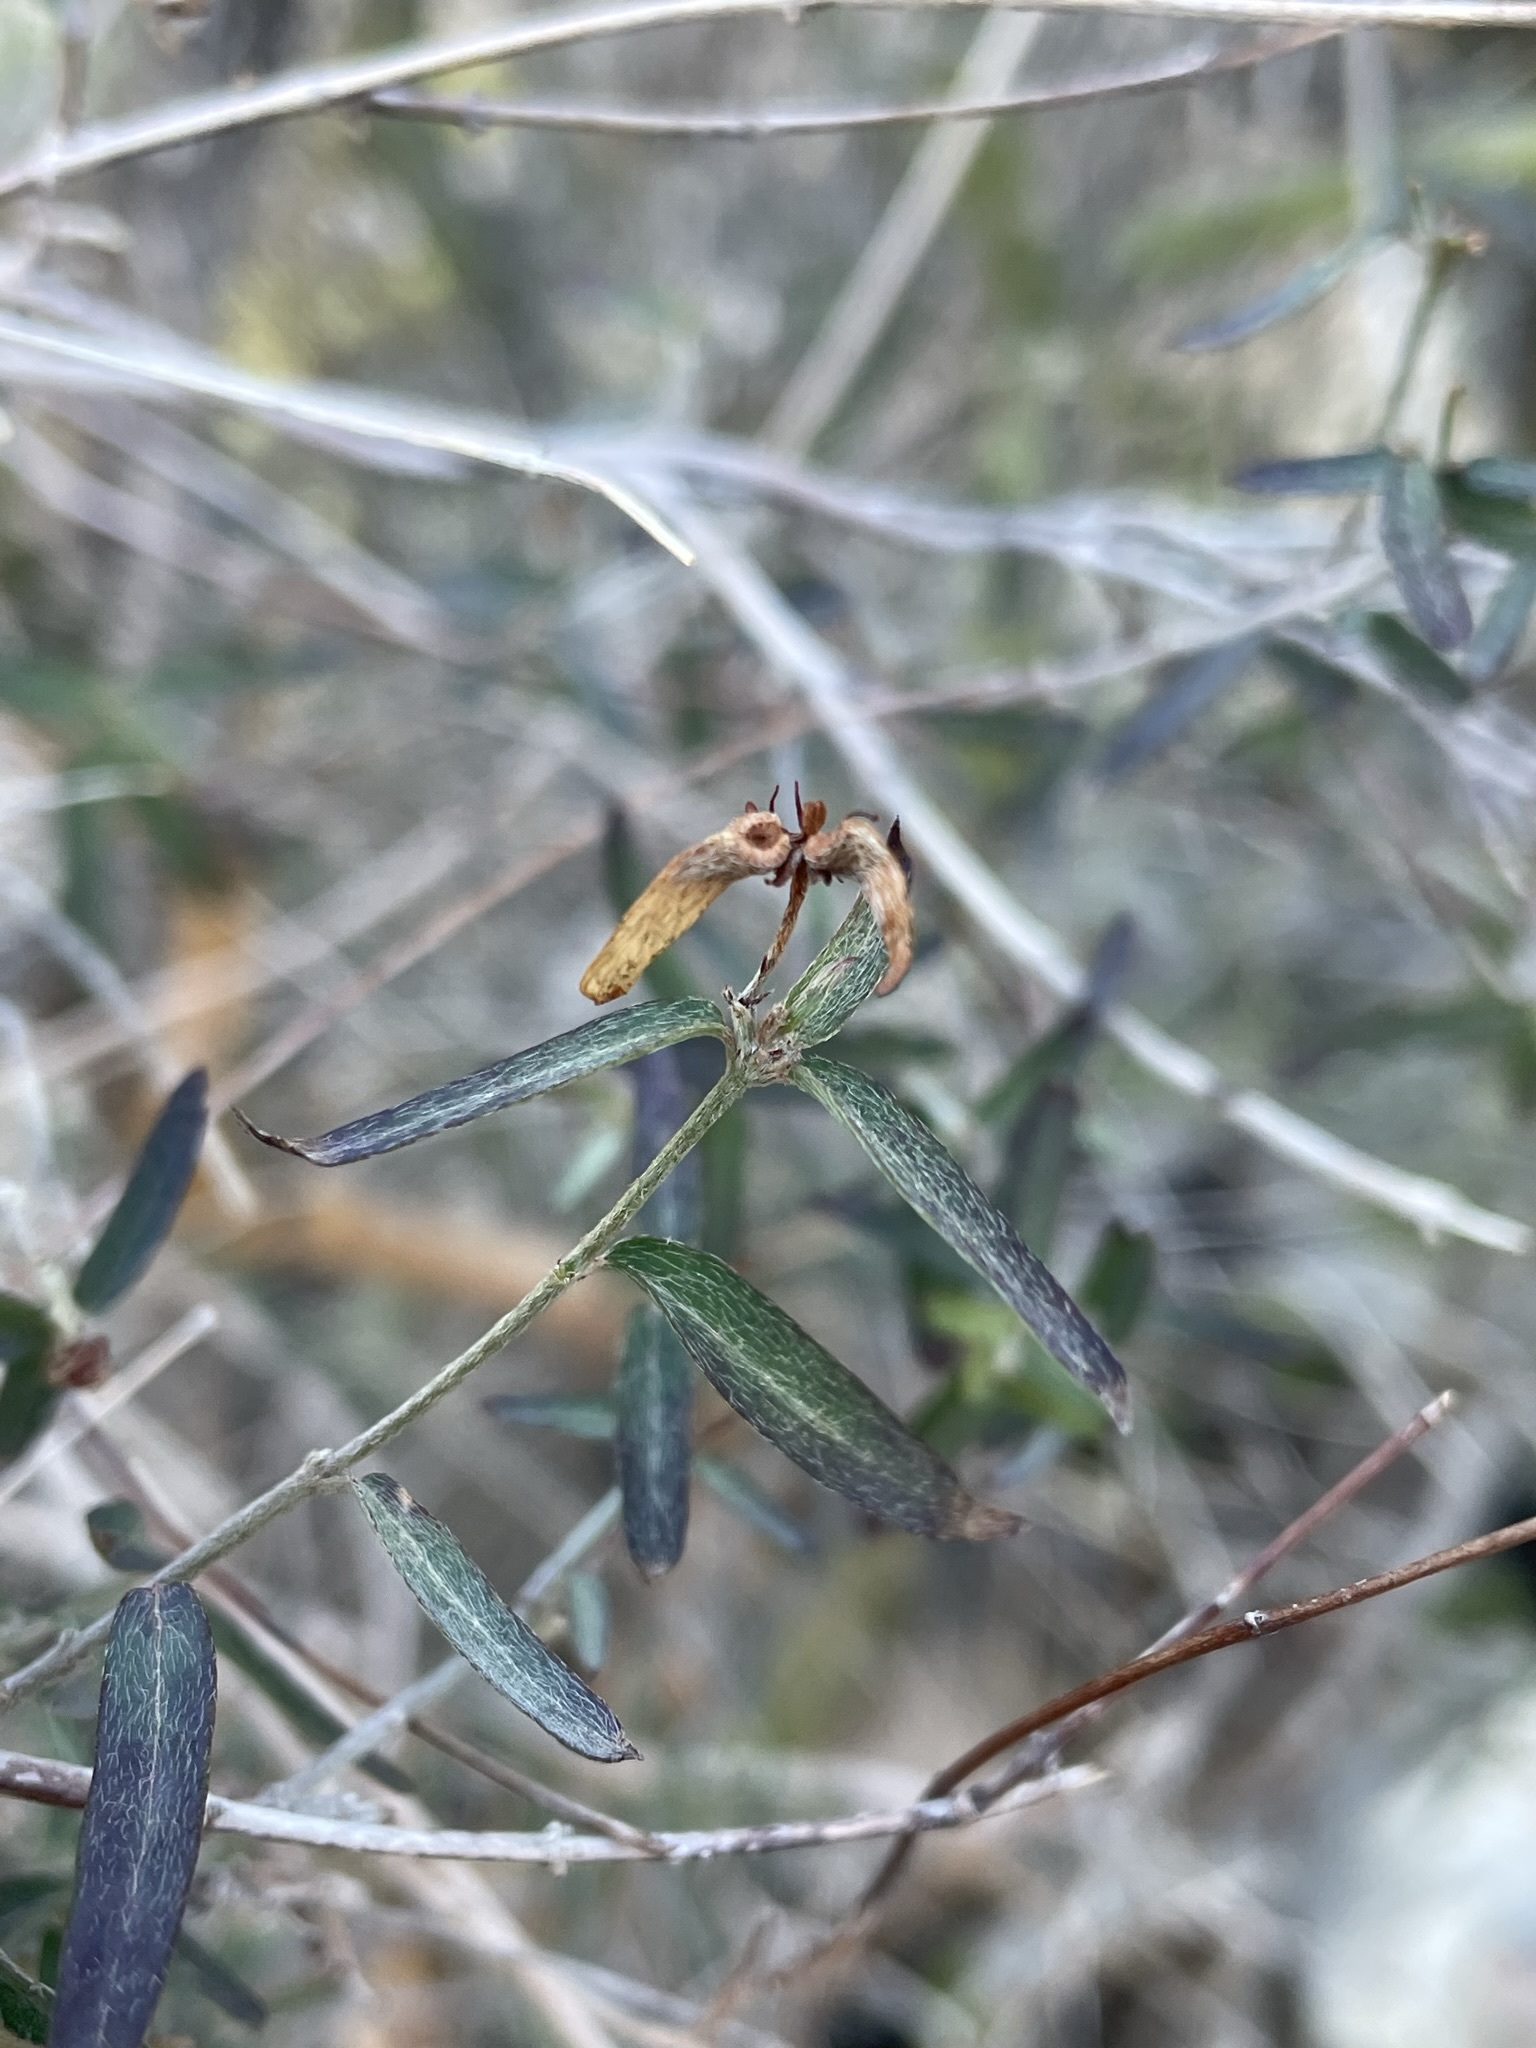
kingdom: Plantae
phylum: Tracheophyta
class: Magnoliopsida
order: Malpighiales
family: Malpighiaceae
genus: Cottsia
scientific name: Cottsia gracilis
